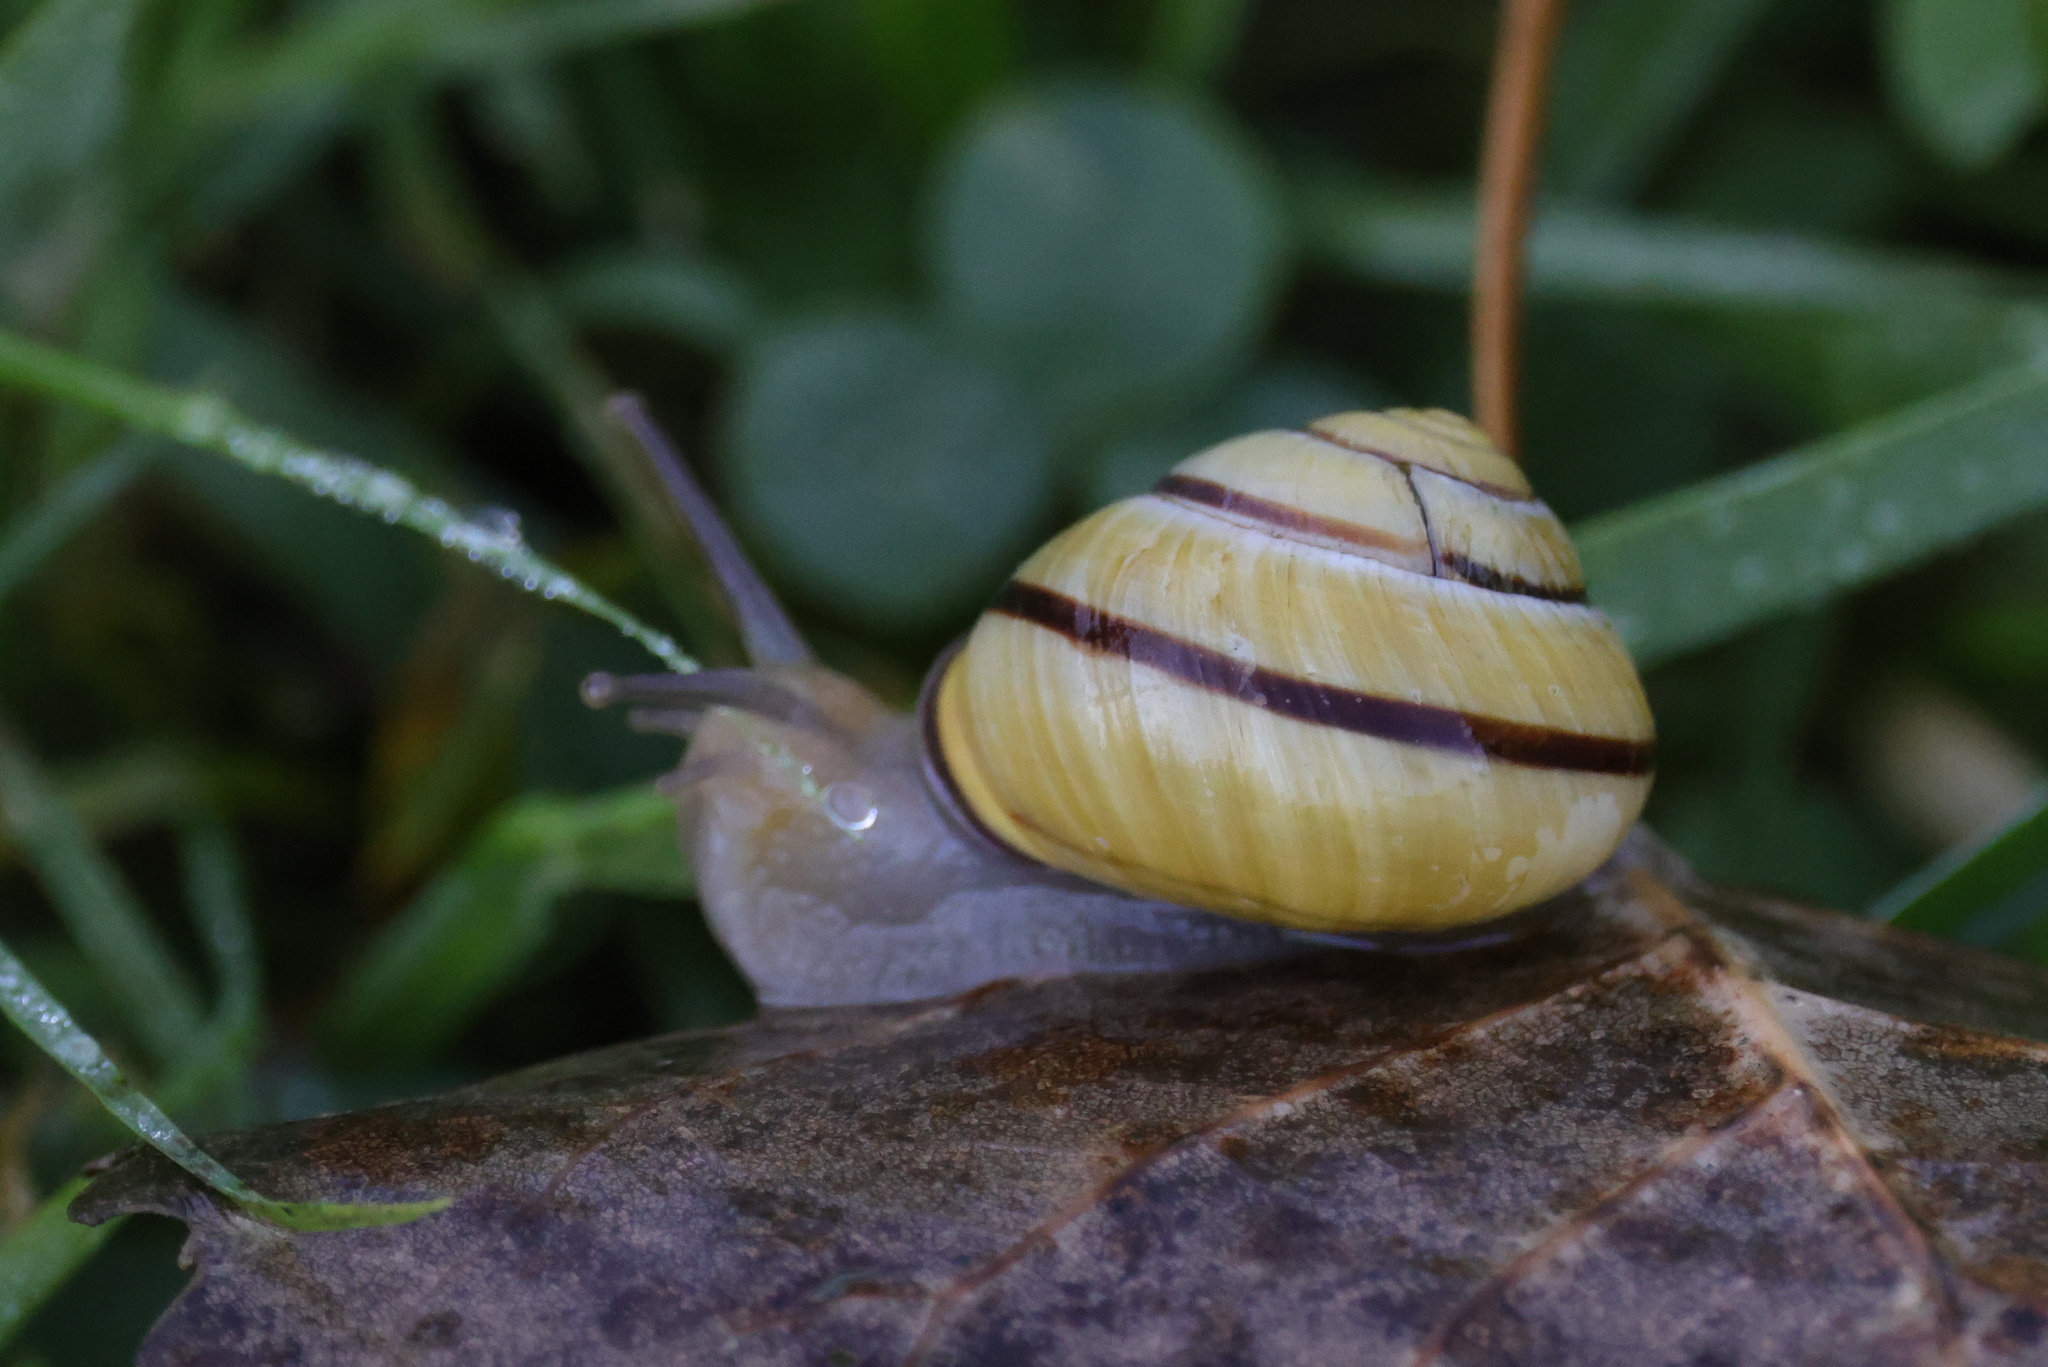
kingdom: Animalia
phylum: Mollusca
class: Gastropoda
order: Stylommatophora
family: Helicidae
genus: Cepaea
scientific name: Cepaea nemoralis
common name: Grovesnail
